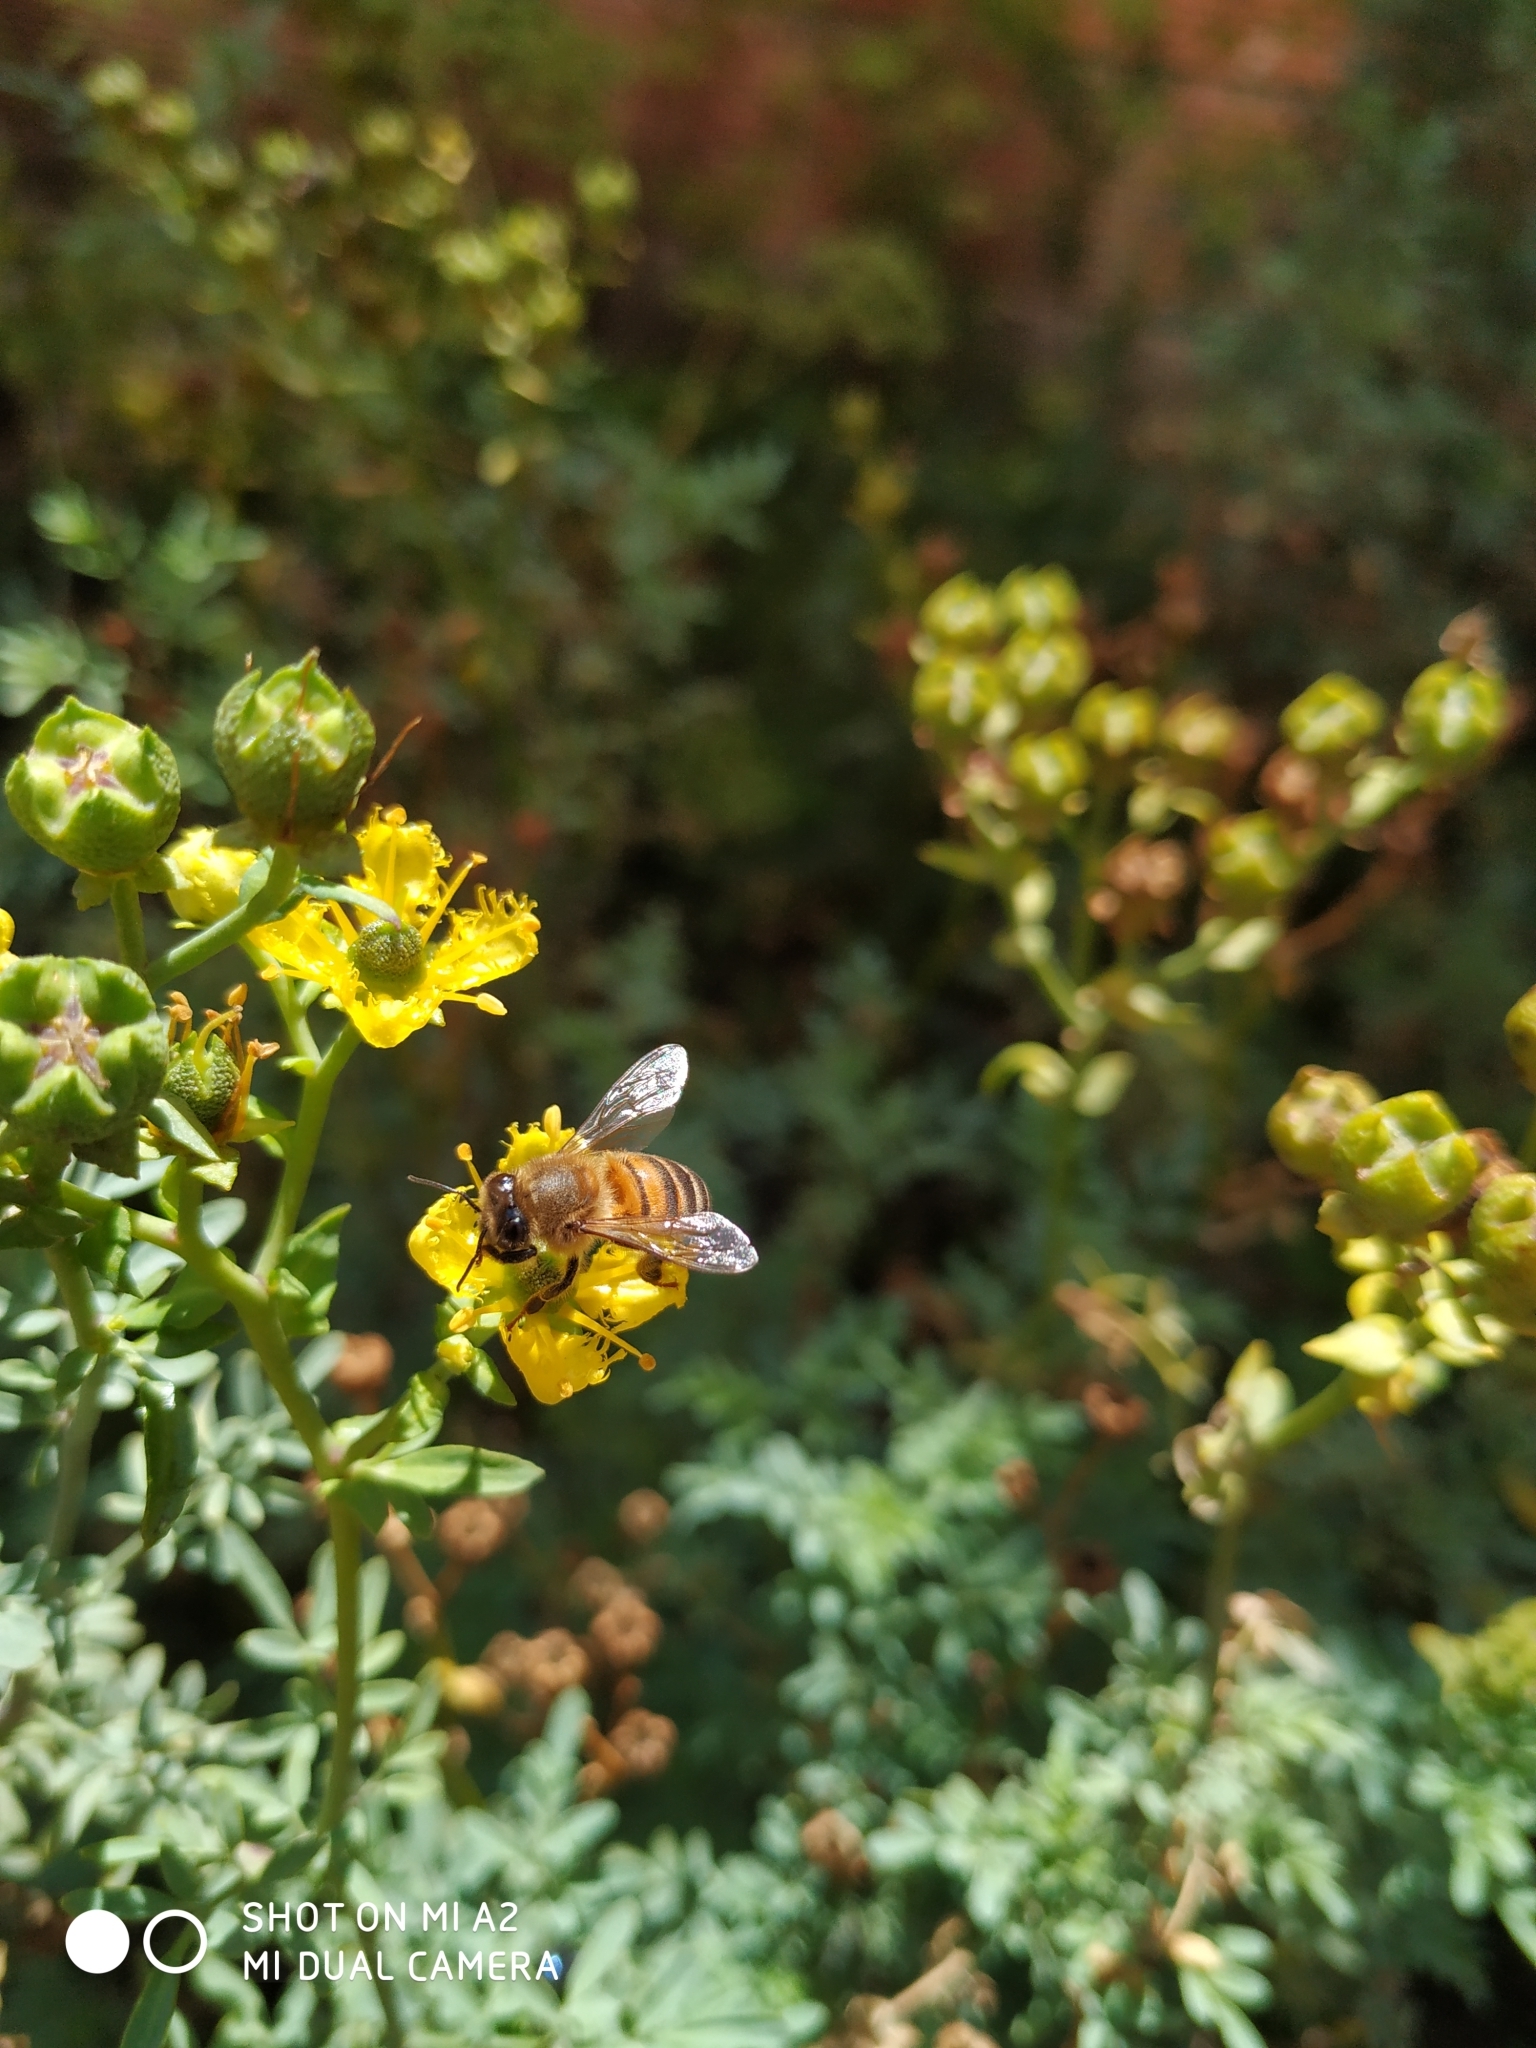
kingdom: Animalia
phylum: Arthropoda
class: Insecta
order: Hymenoptera
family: Apidae
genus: Apis
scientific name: Apis mellifera
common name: Honey bee
